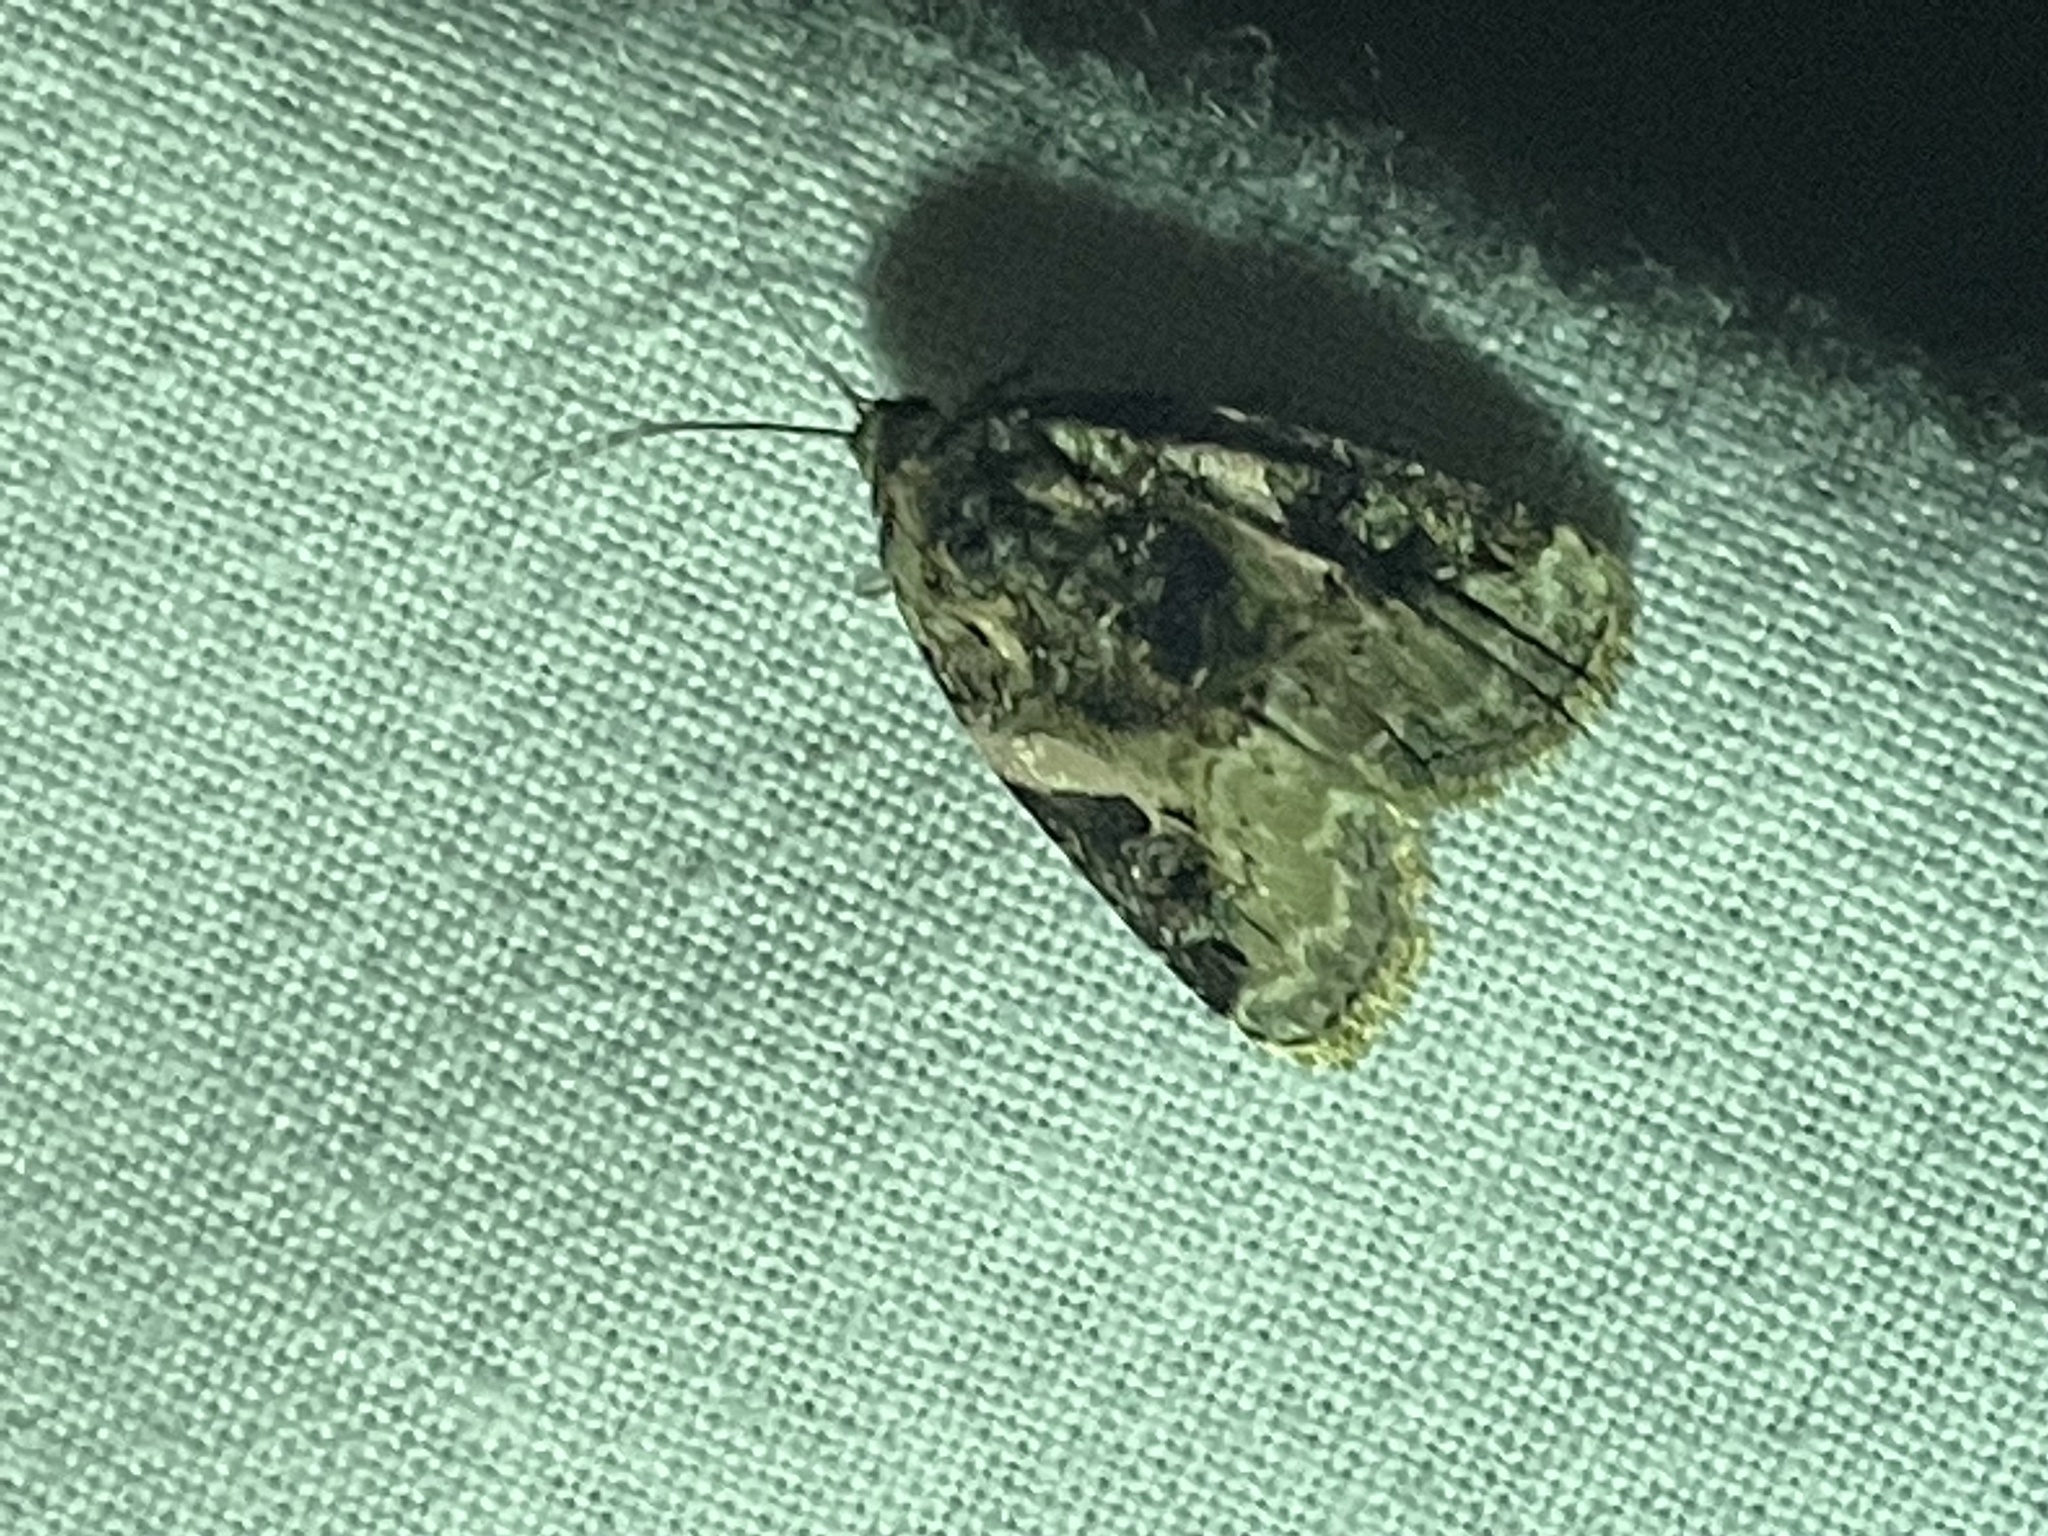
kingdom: Animalia
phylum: Arthropoda
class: Insecta
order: Lepidoptera
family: Noctuidae
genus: Pseudeustrotia
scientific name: Pseudeustrotia carneola
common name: Pink-barred lithacodia moth
